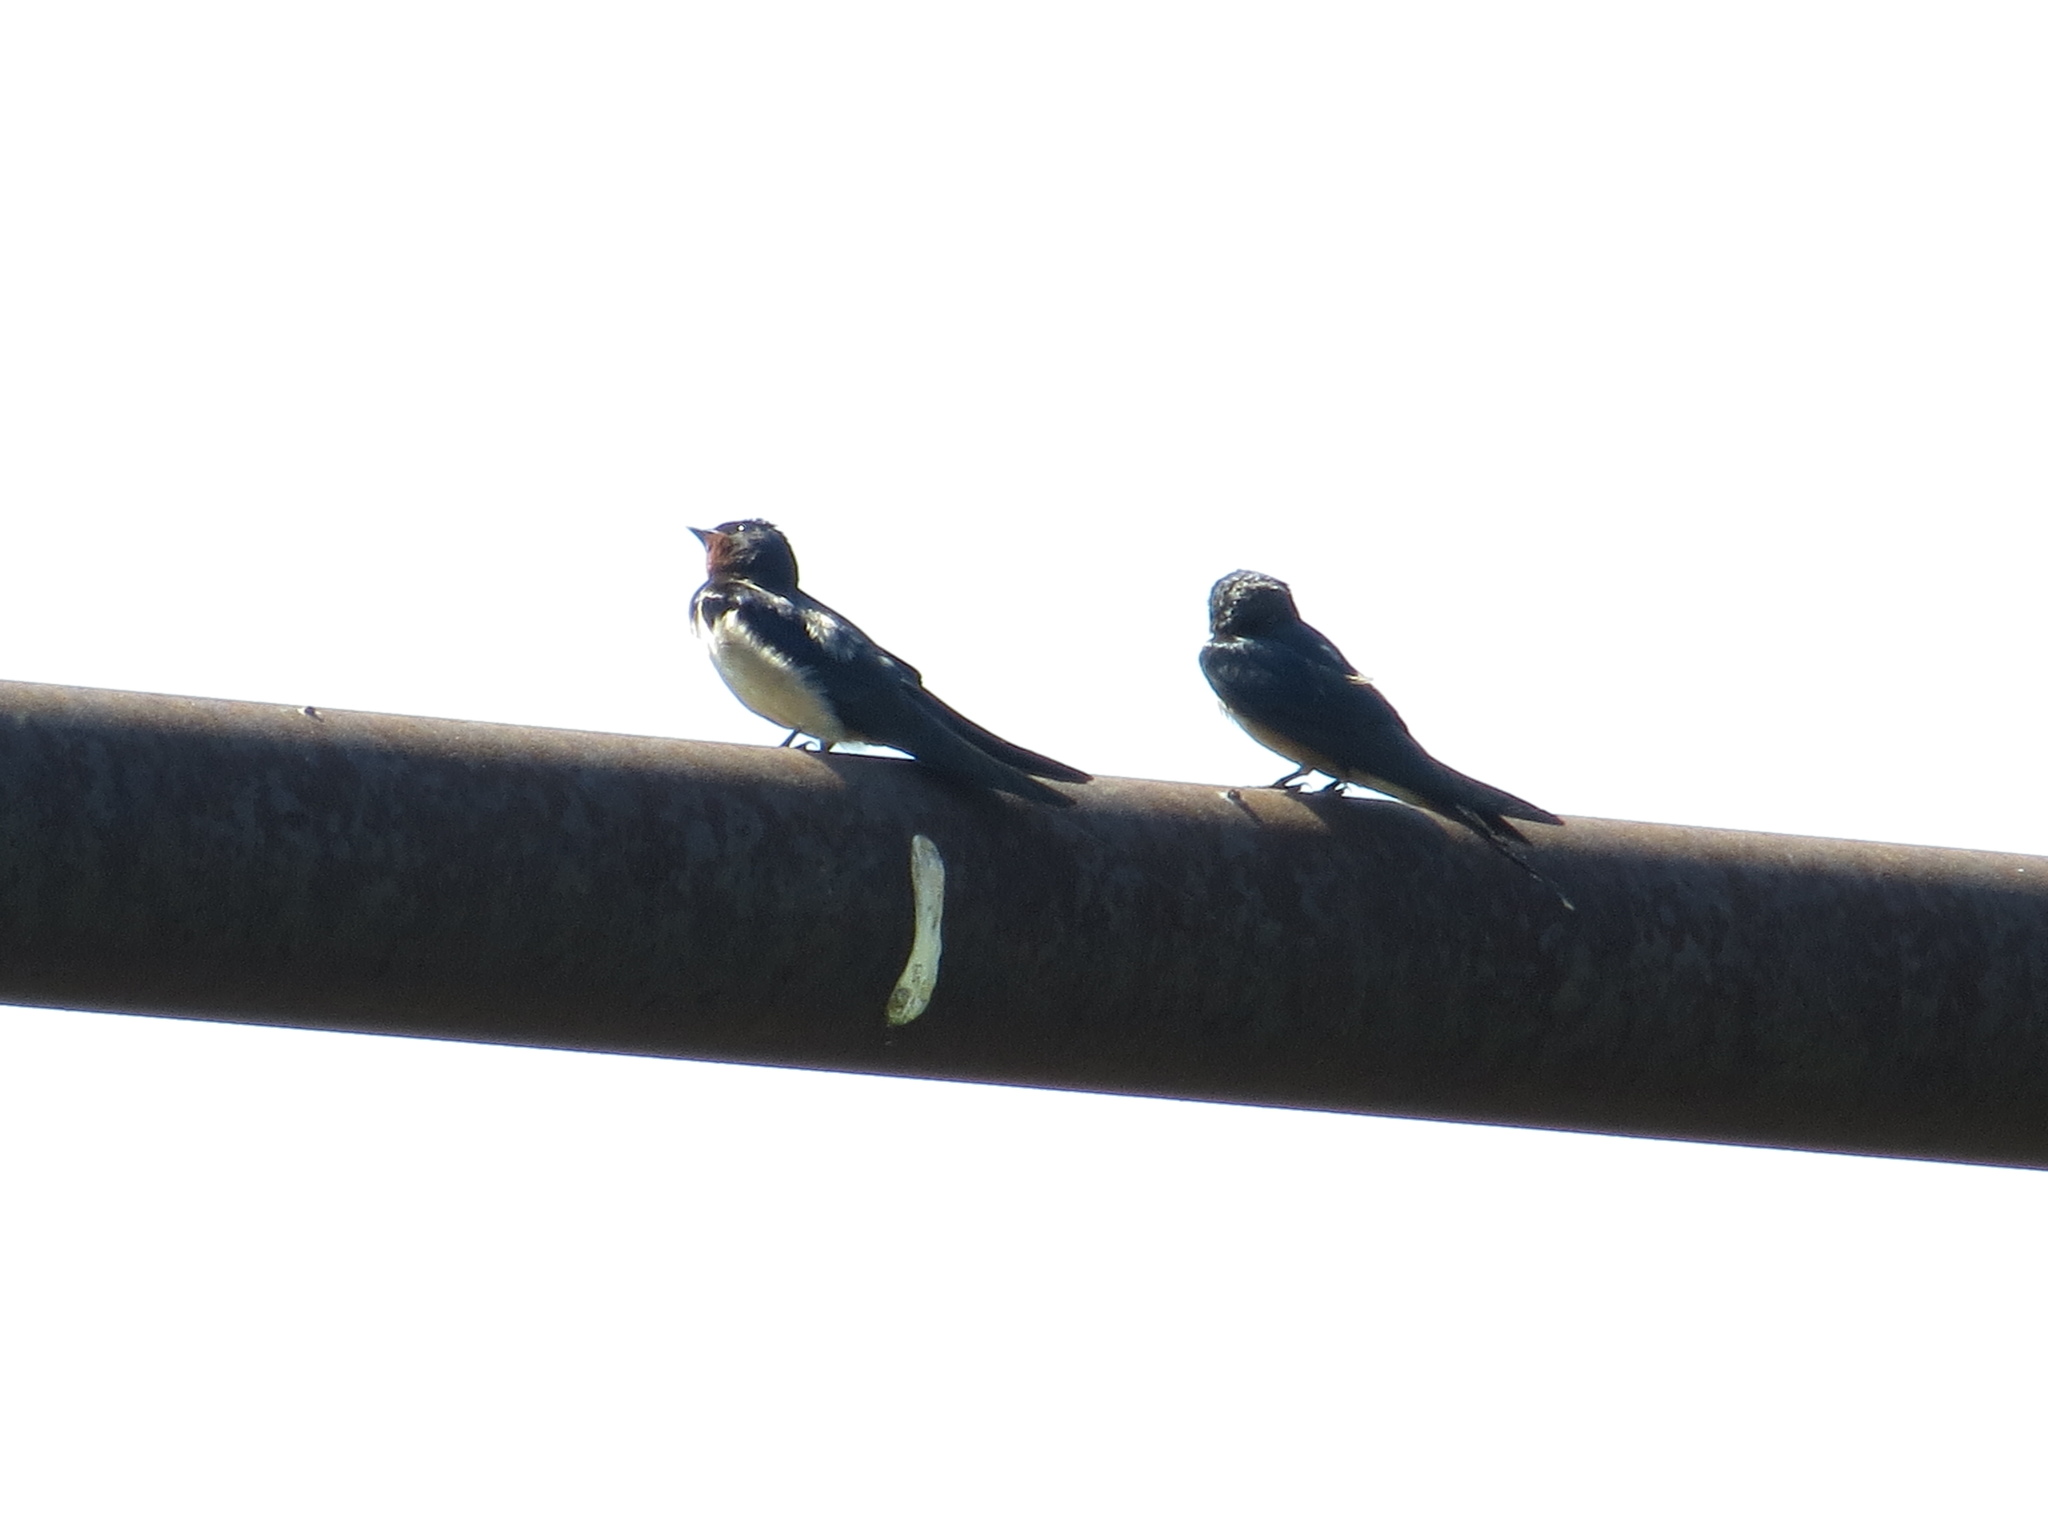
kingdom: Animalia
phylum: Chordata
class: Aves
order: Passeriformes
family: Hirundinidae
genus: Hirundo
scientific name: Hirundo rustica
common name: Barn swallow
